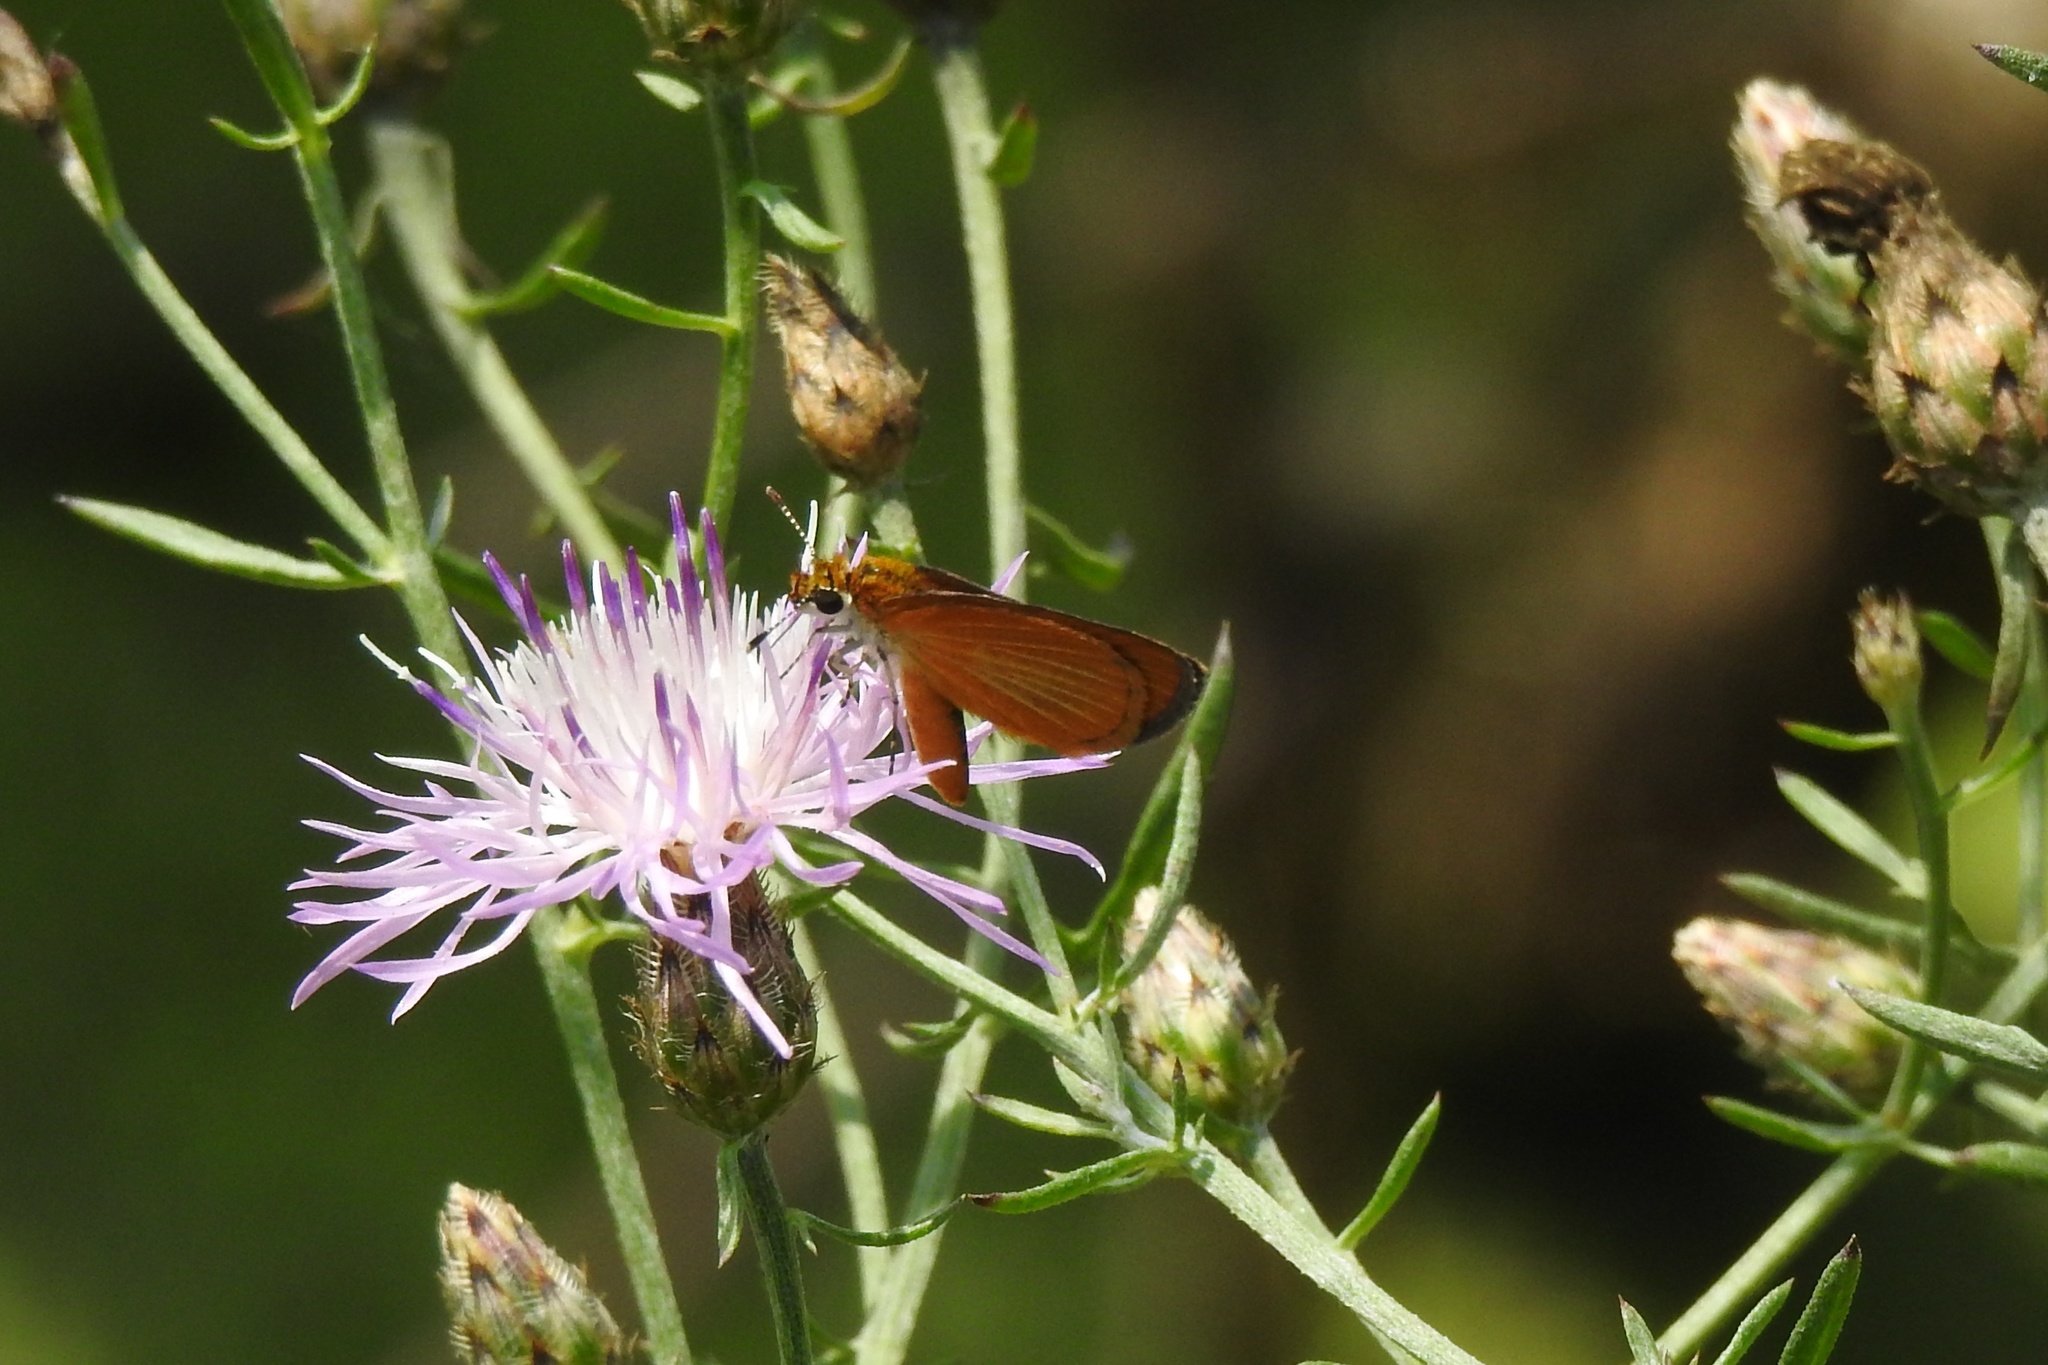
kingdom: Animalia
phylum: Arthropoda
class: Insecta
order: Lepidoptera
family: Hesperiidae
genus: Ancyloxypha
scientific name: Ancyloxypha numitor
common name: Least skipper
